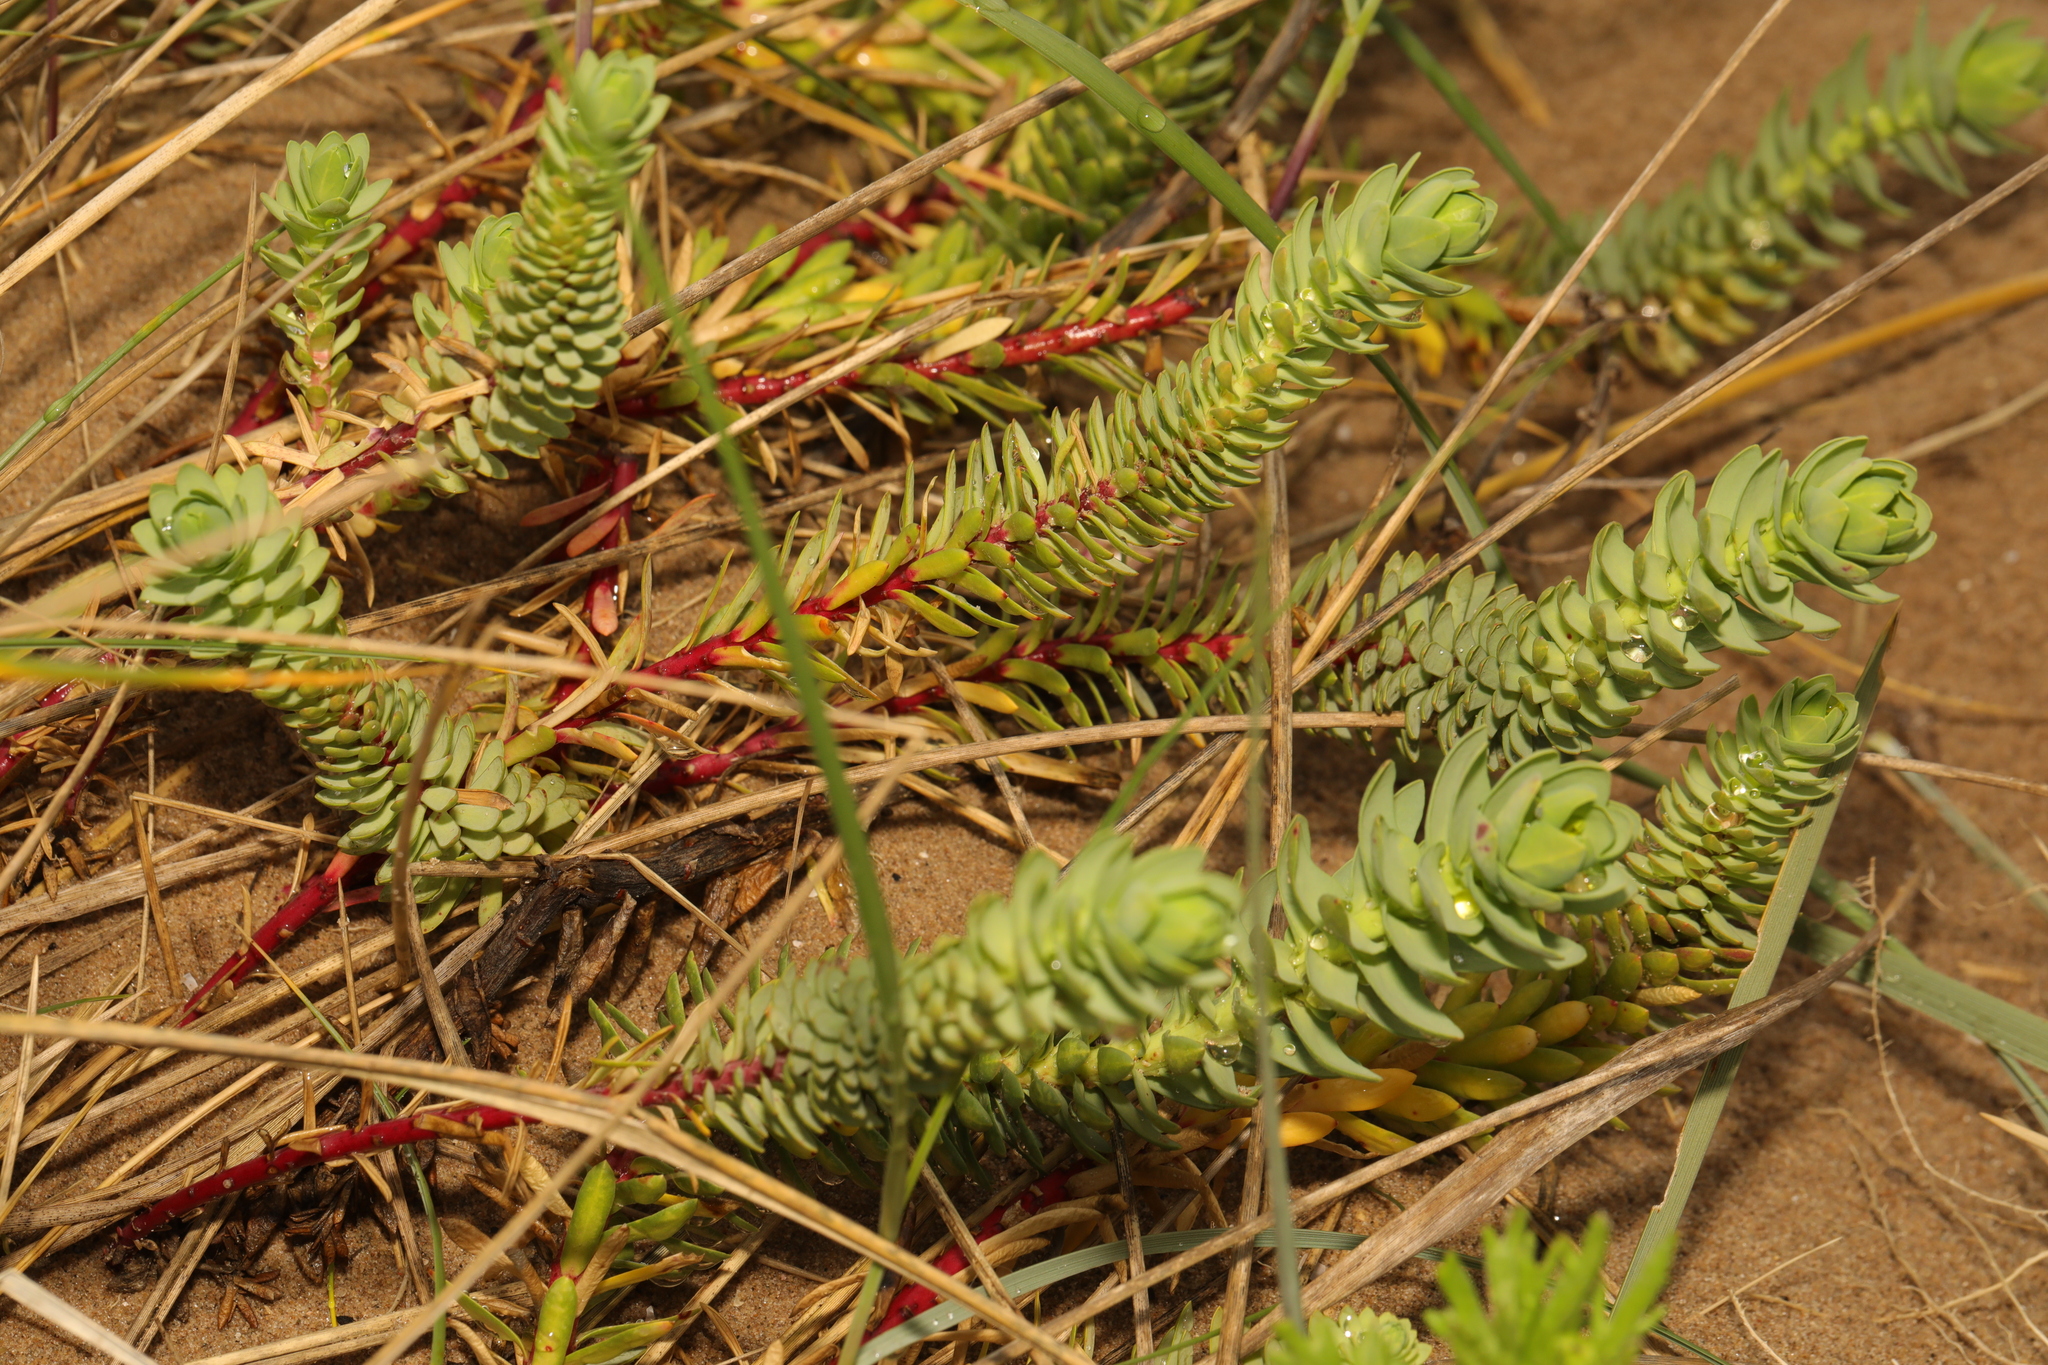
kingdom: Plantae
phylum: Tracheophyta
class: Magnoliopsida
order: Malpighiales
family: Euphorbiaceae
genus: Euphorbia
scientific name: Euphorbia paralias
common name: Sea spurge
